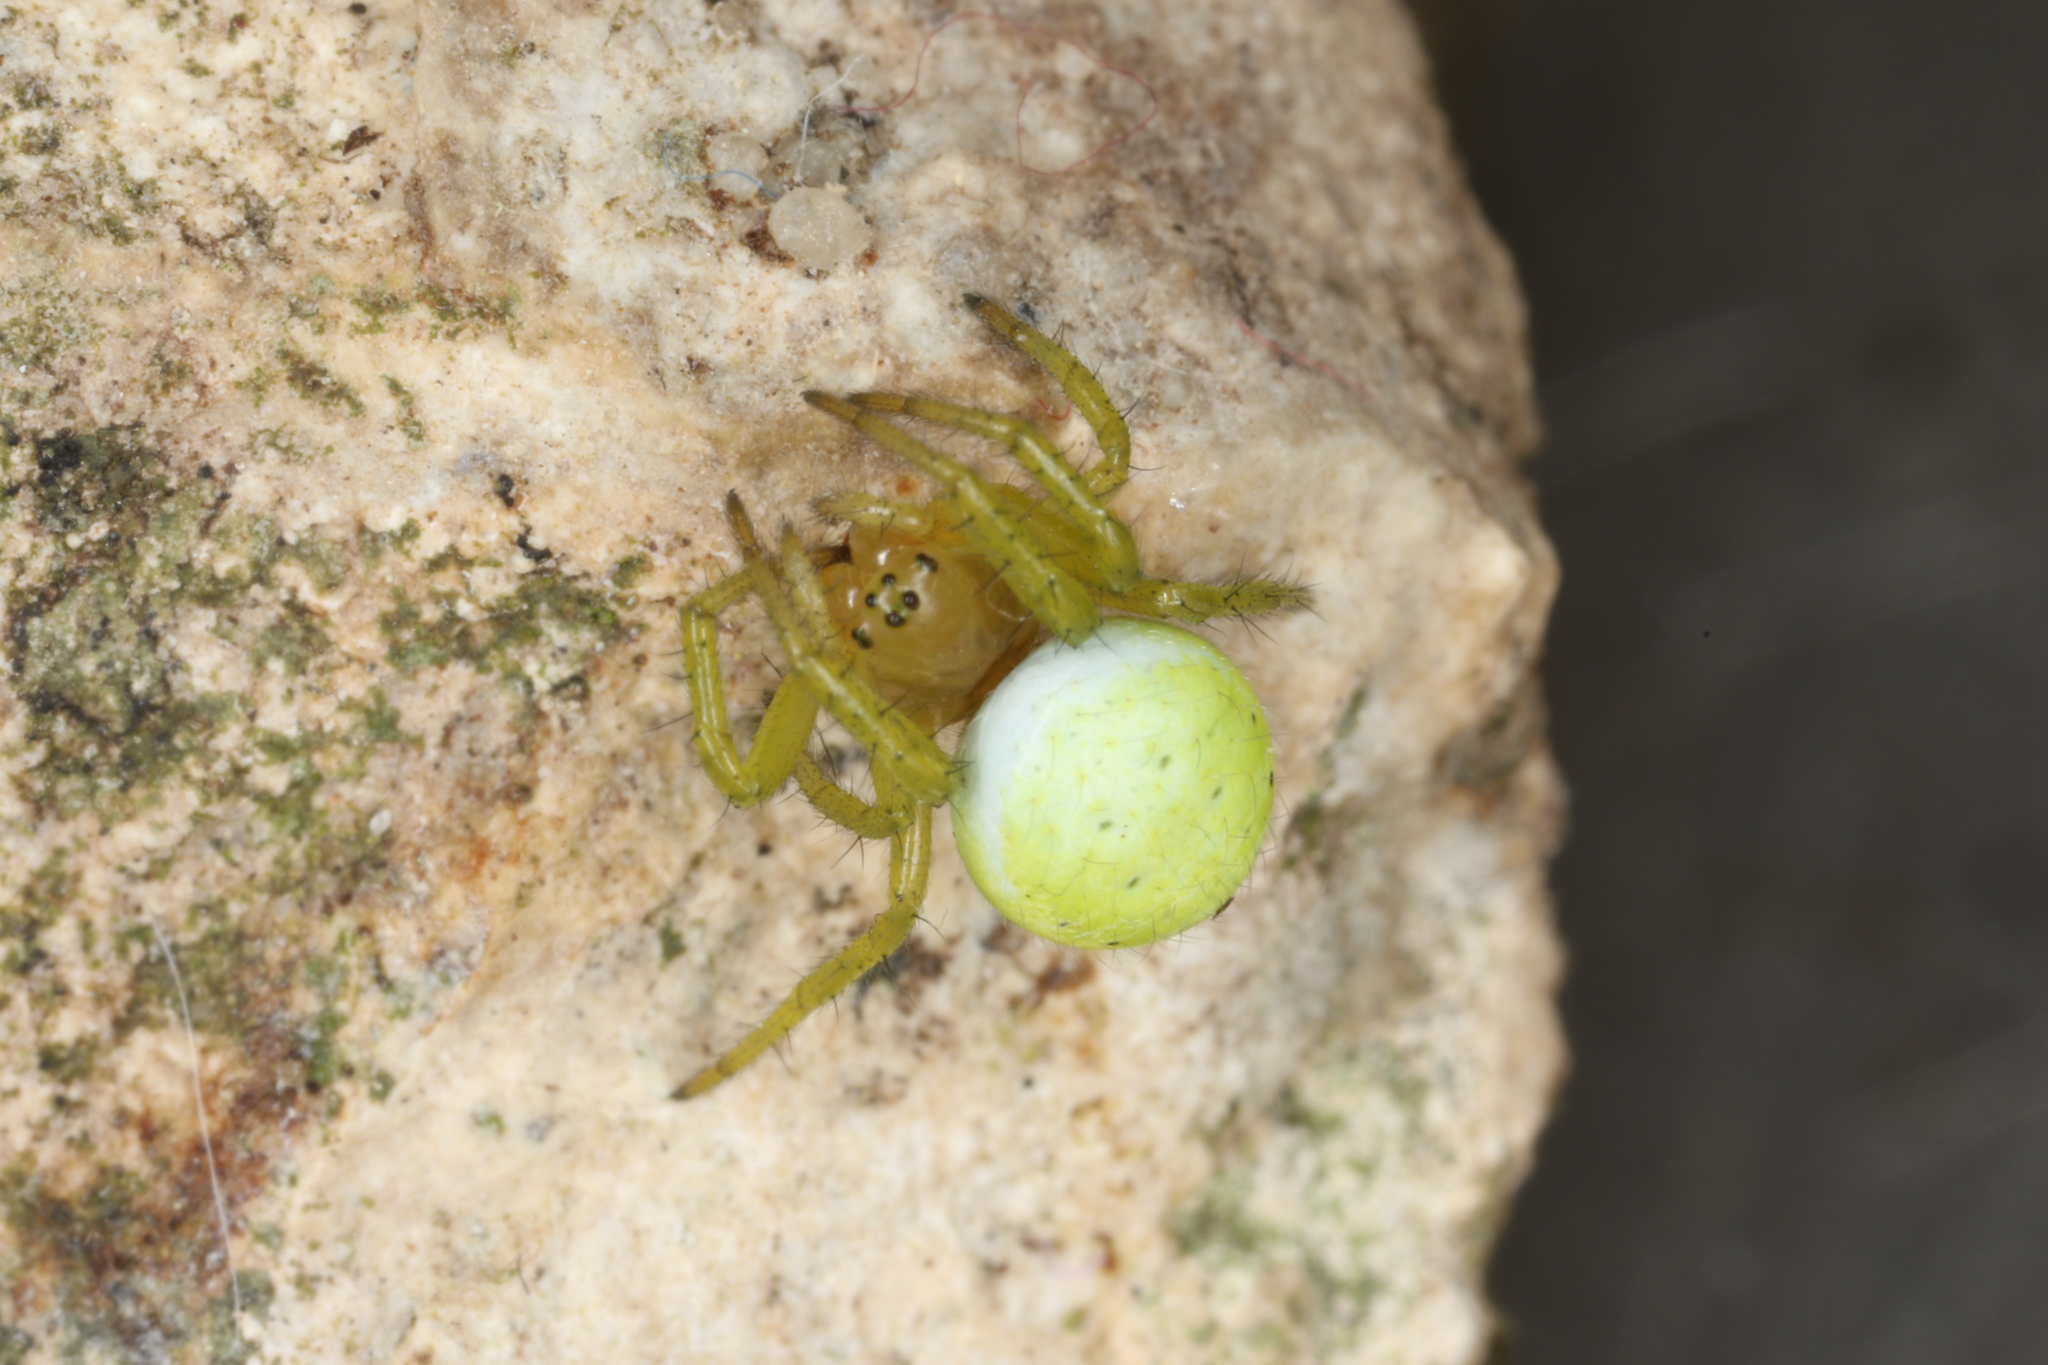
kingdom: Animalia
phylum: Arthropoda
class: Arachnida
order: Araneae
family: Araneidae
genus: Araniella
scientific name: Araniella cucurbitina
